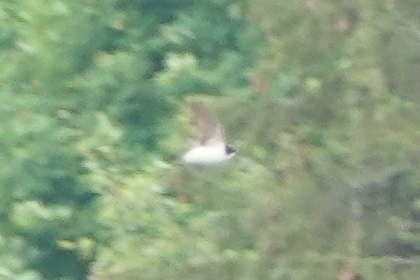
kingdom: Animalia
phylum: Chordata
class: Aves
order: Passeriformes
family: Hirundinidae
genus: Delichon
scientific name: Delichon urbicum
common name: Common house martin
